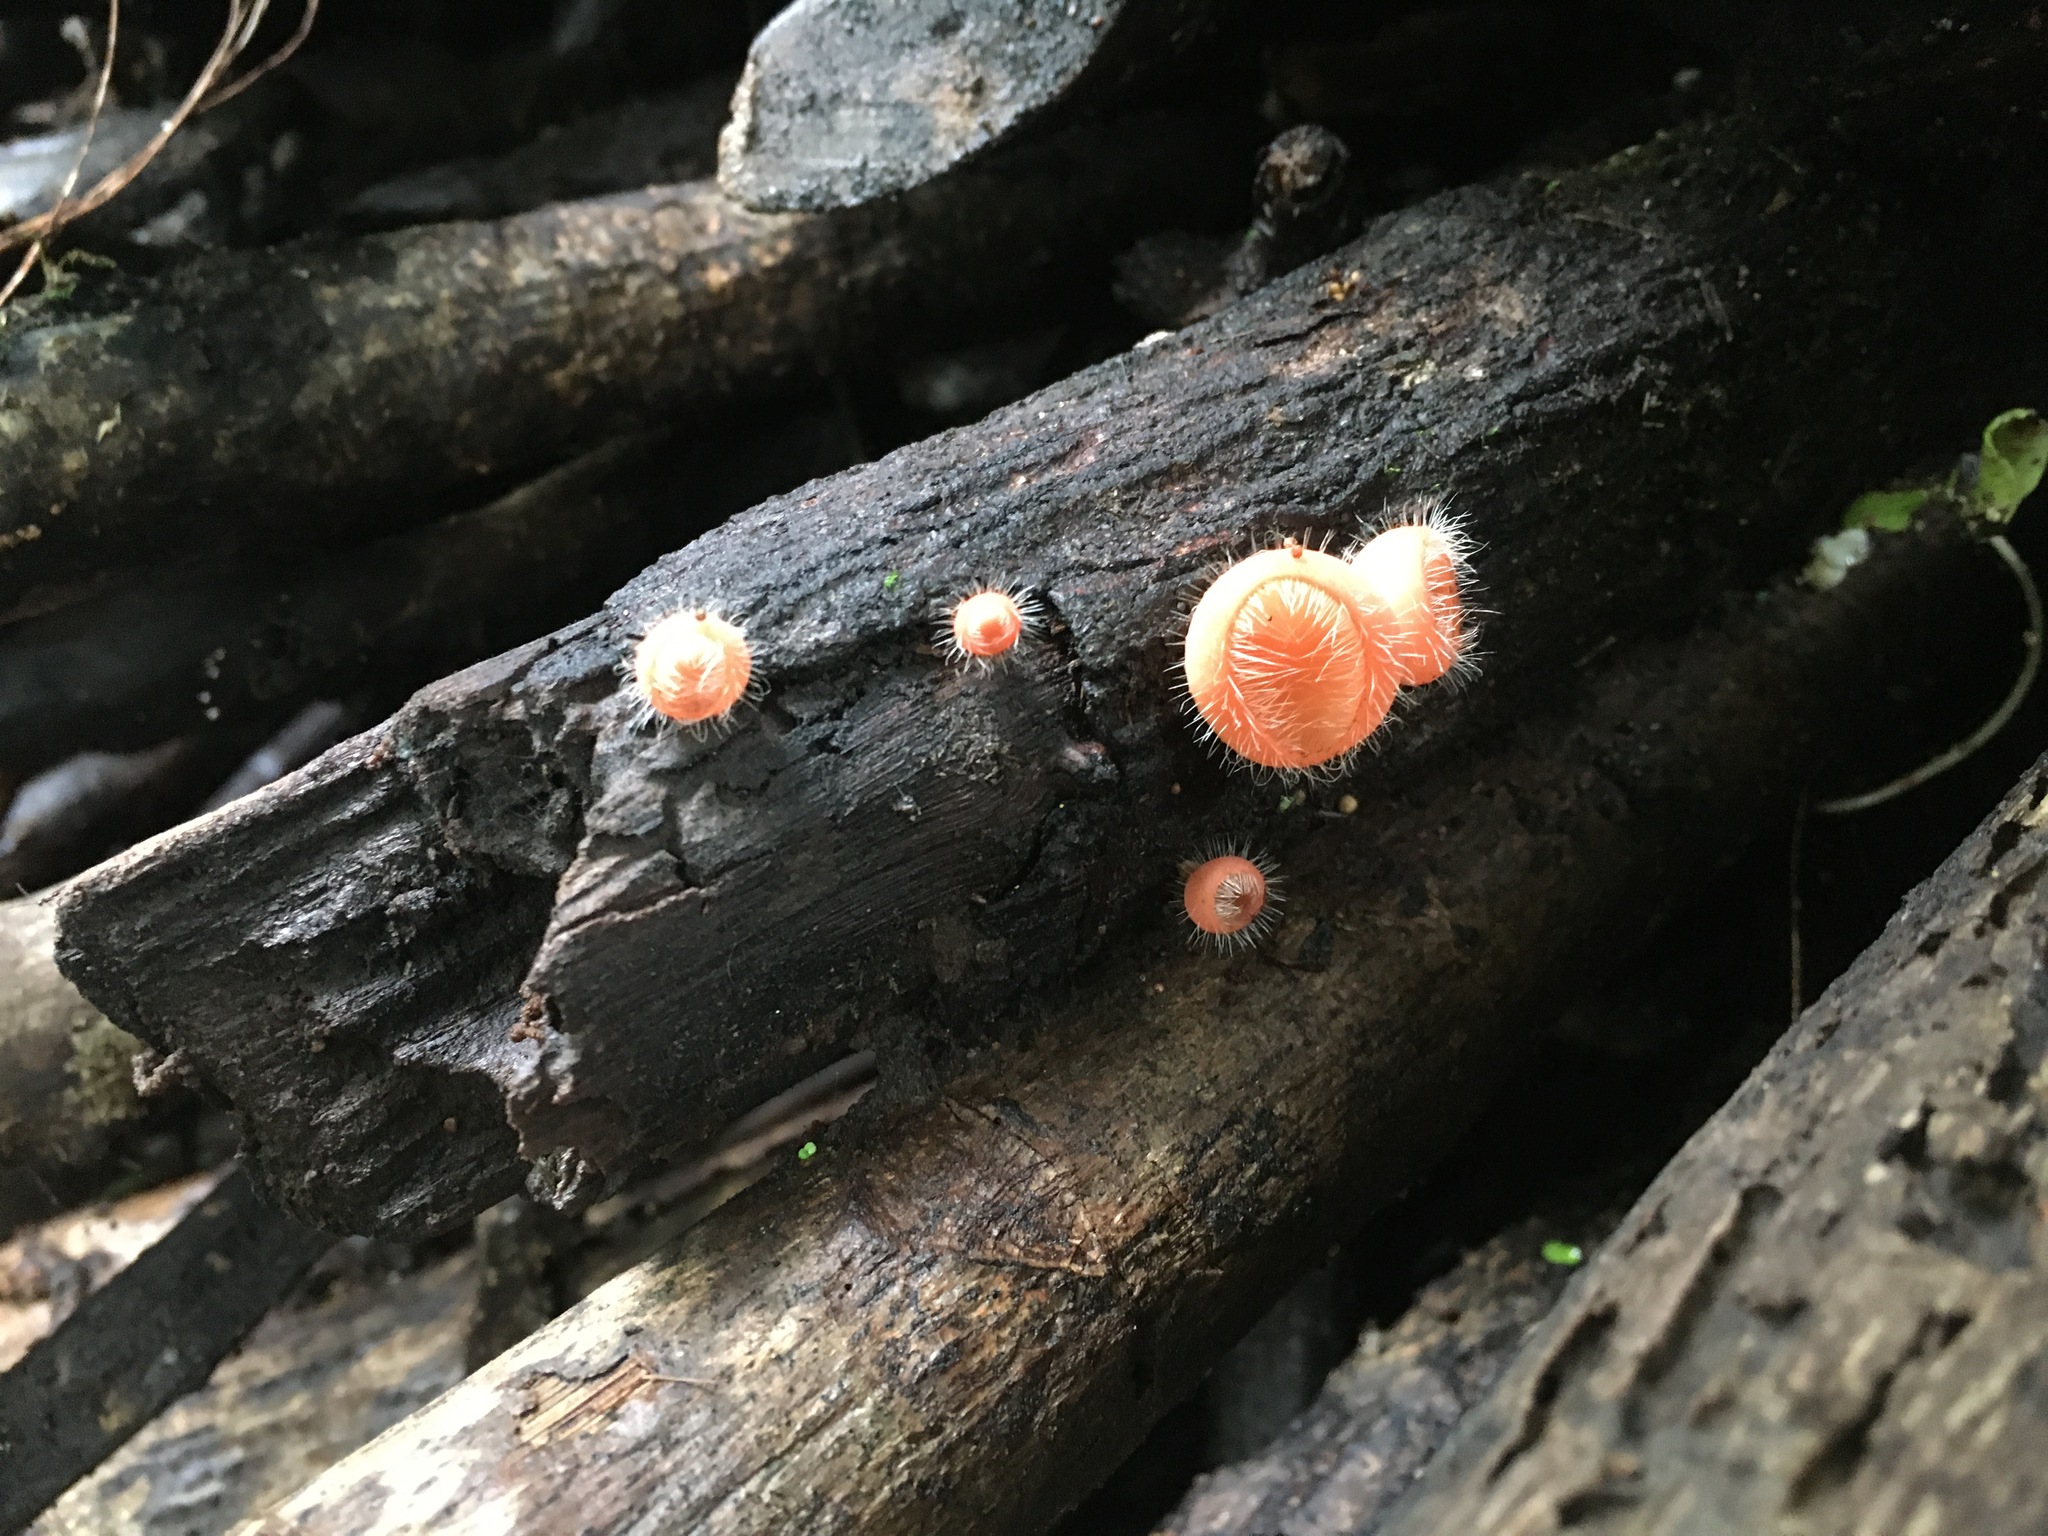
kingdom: Fungi
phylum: Ascomycota
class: Pezizomycetes
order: Pezizales
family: Sarcoscyphaceae
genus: Cookeina
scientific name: Cookeina tricholoma
